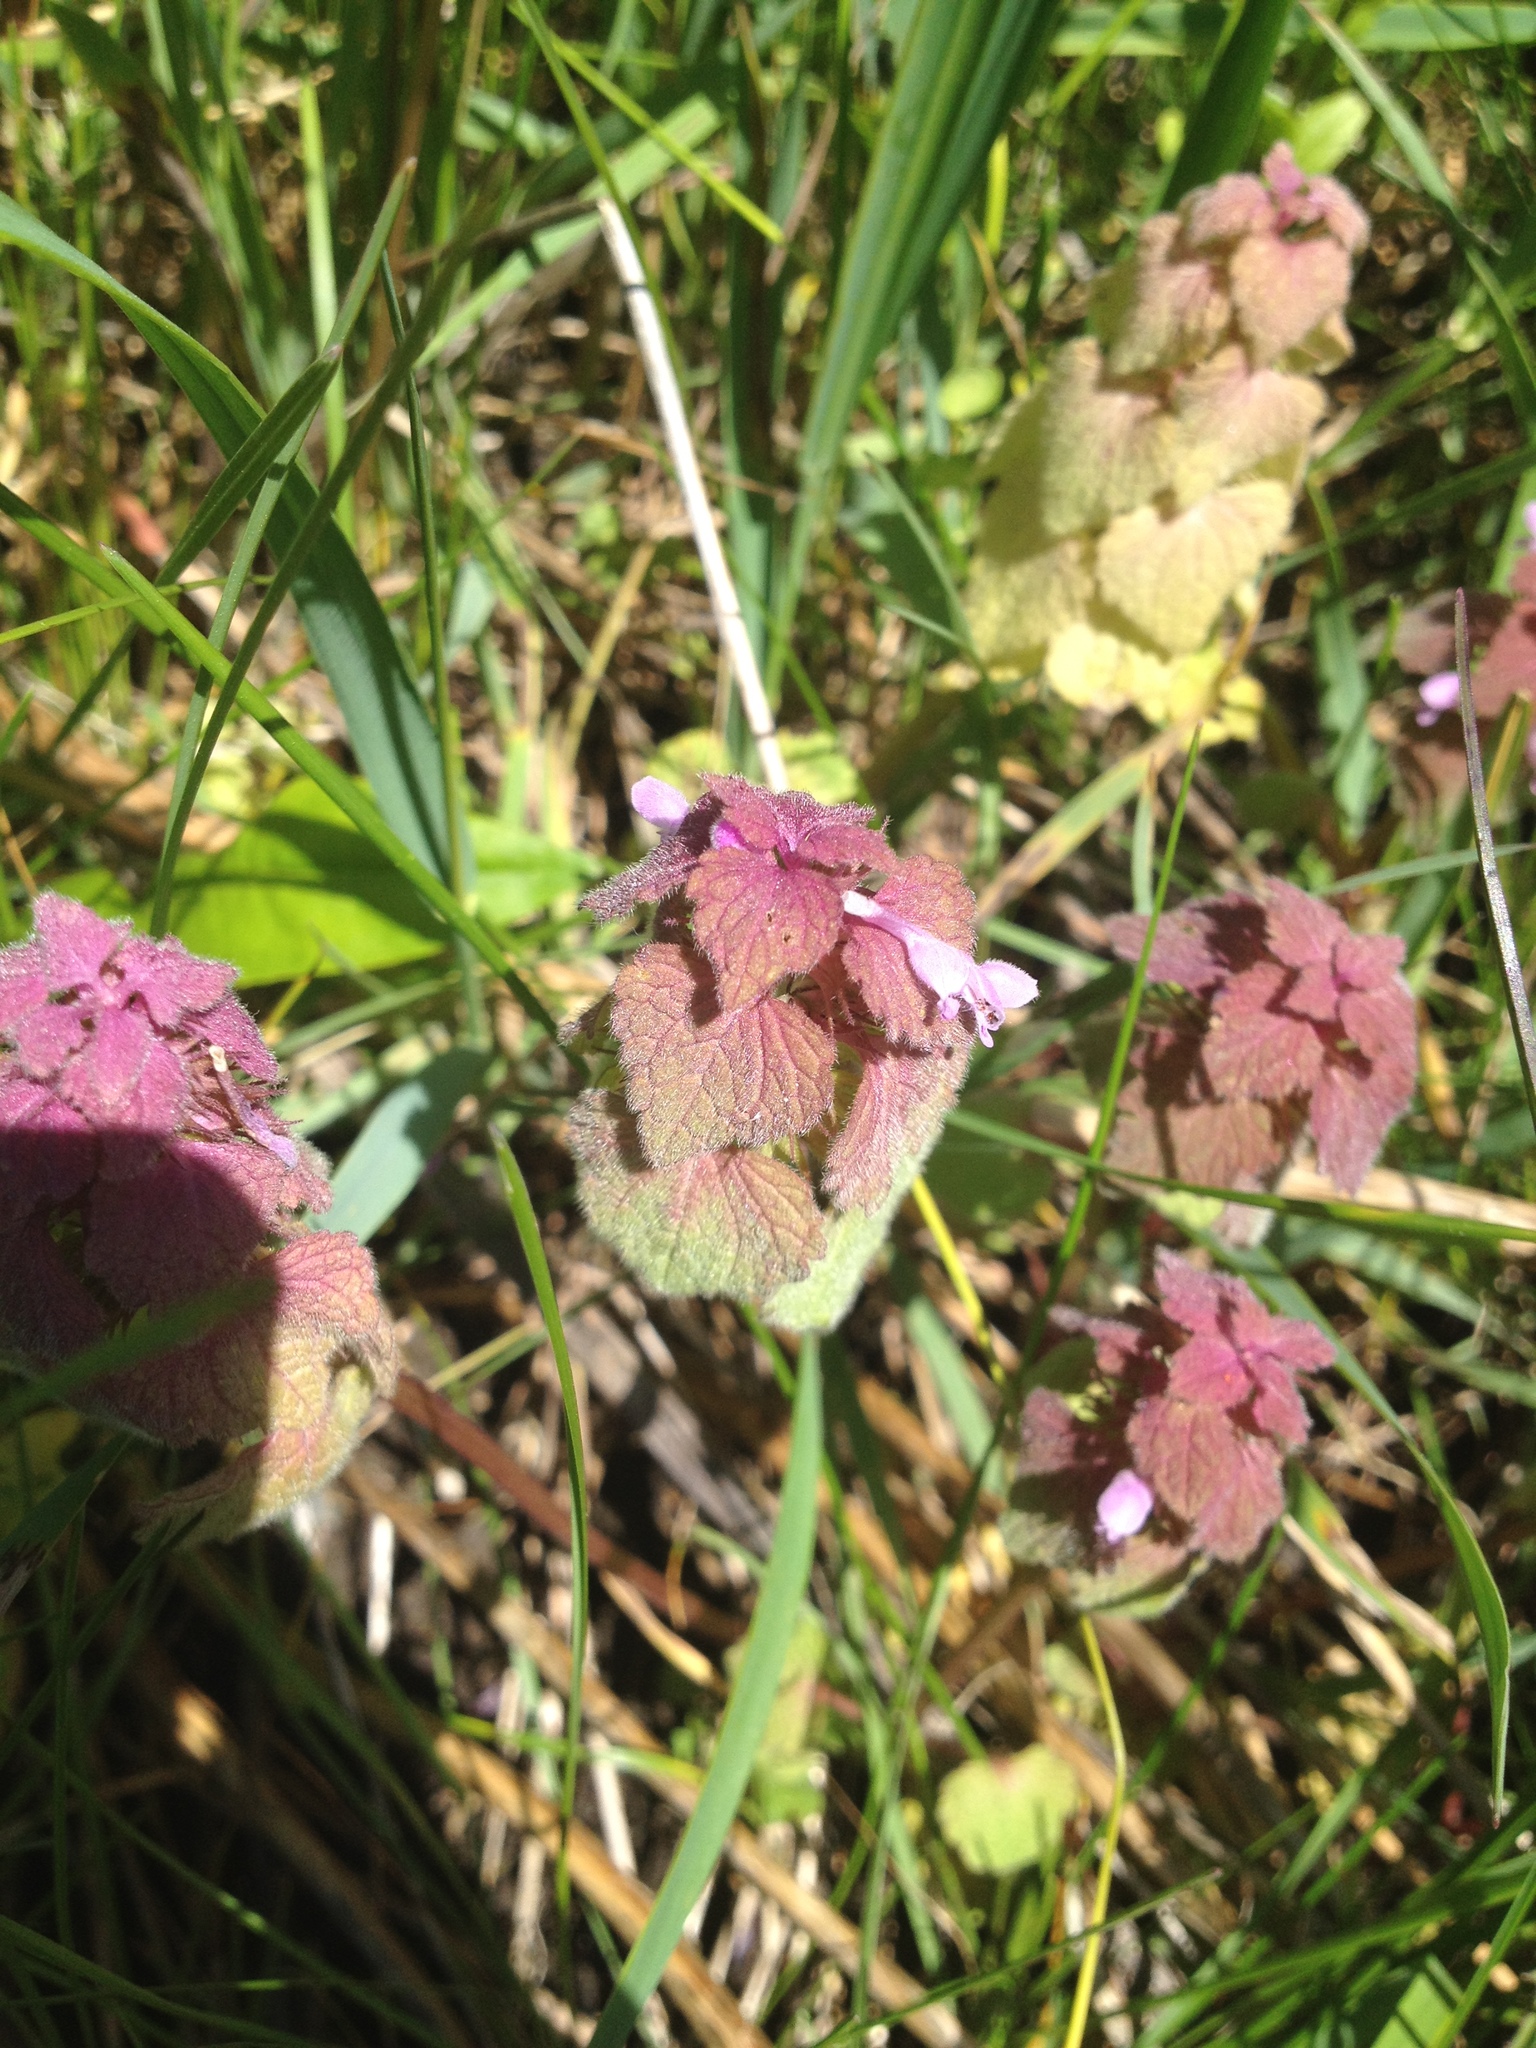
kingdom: Plantae
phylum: Tracheophyta
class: Magnoliopsida
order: Lamiales
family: Lamiaceae
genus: Lamium
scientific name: Lamium purpureum
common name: Red dead-nettle
